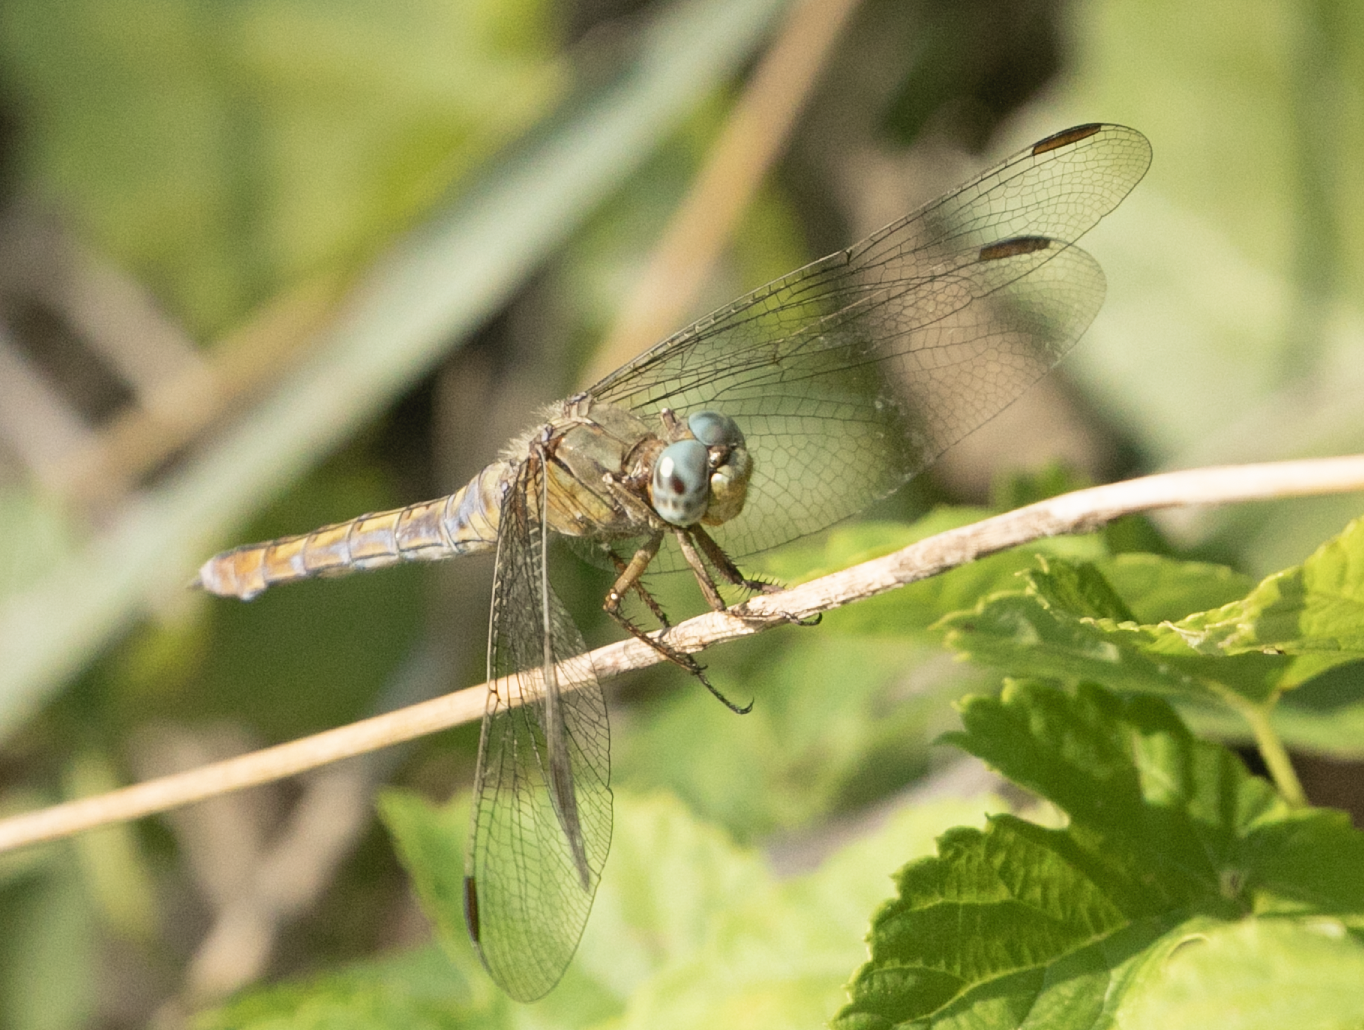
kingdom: Animalia
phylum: Arthropoda
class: Insecta
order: Odonata
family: Libellulidae
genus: Orthetrum
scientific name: Orthetrum coerulescens
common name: Keeled skimmer
